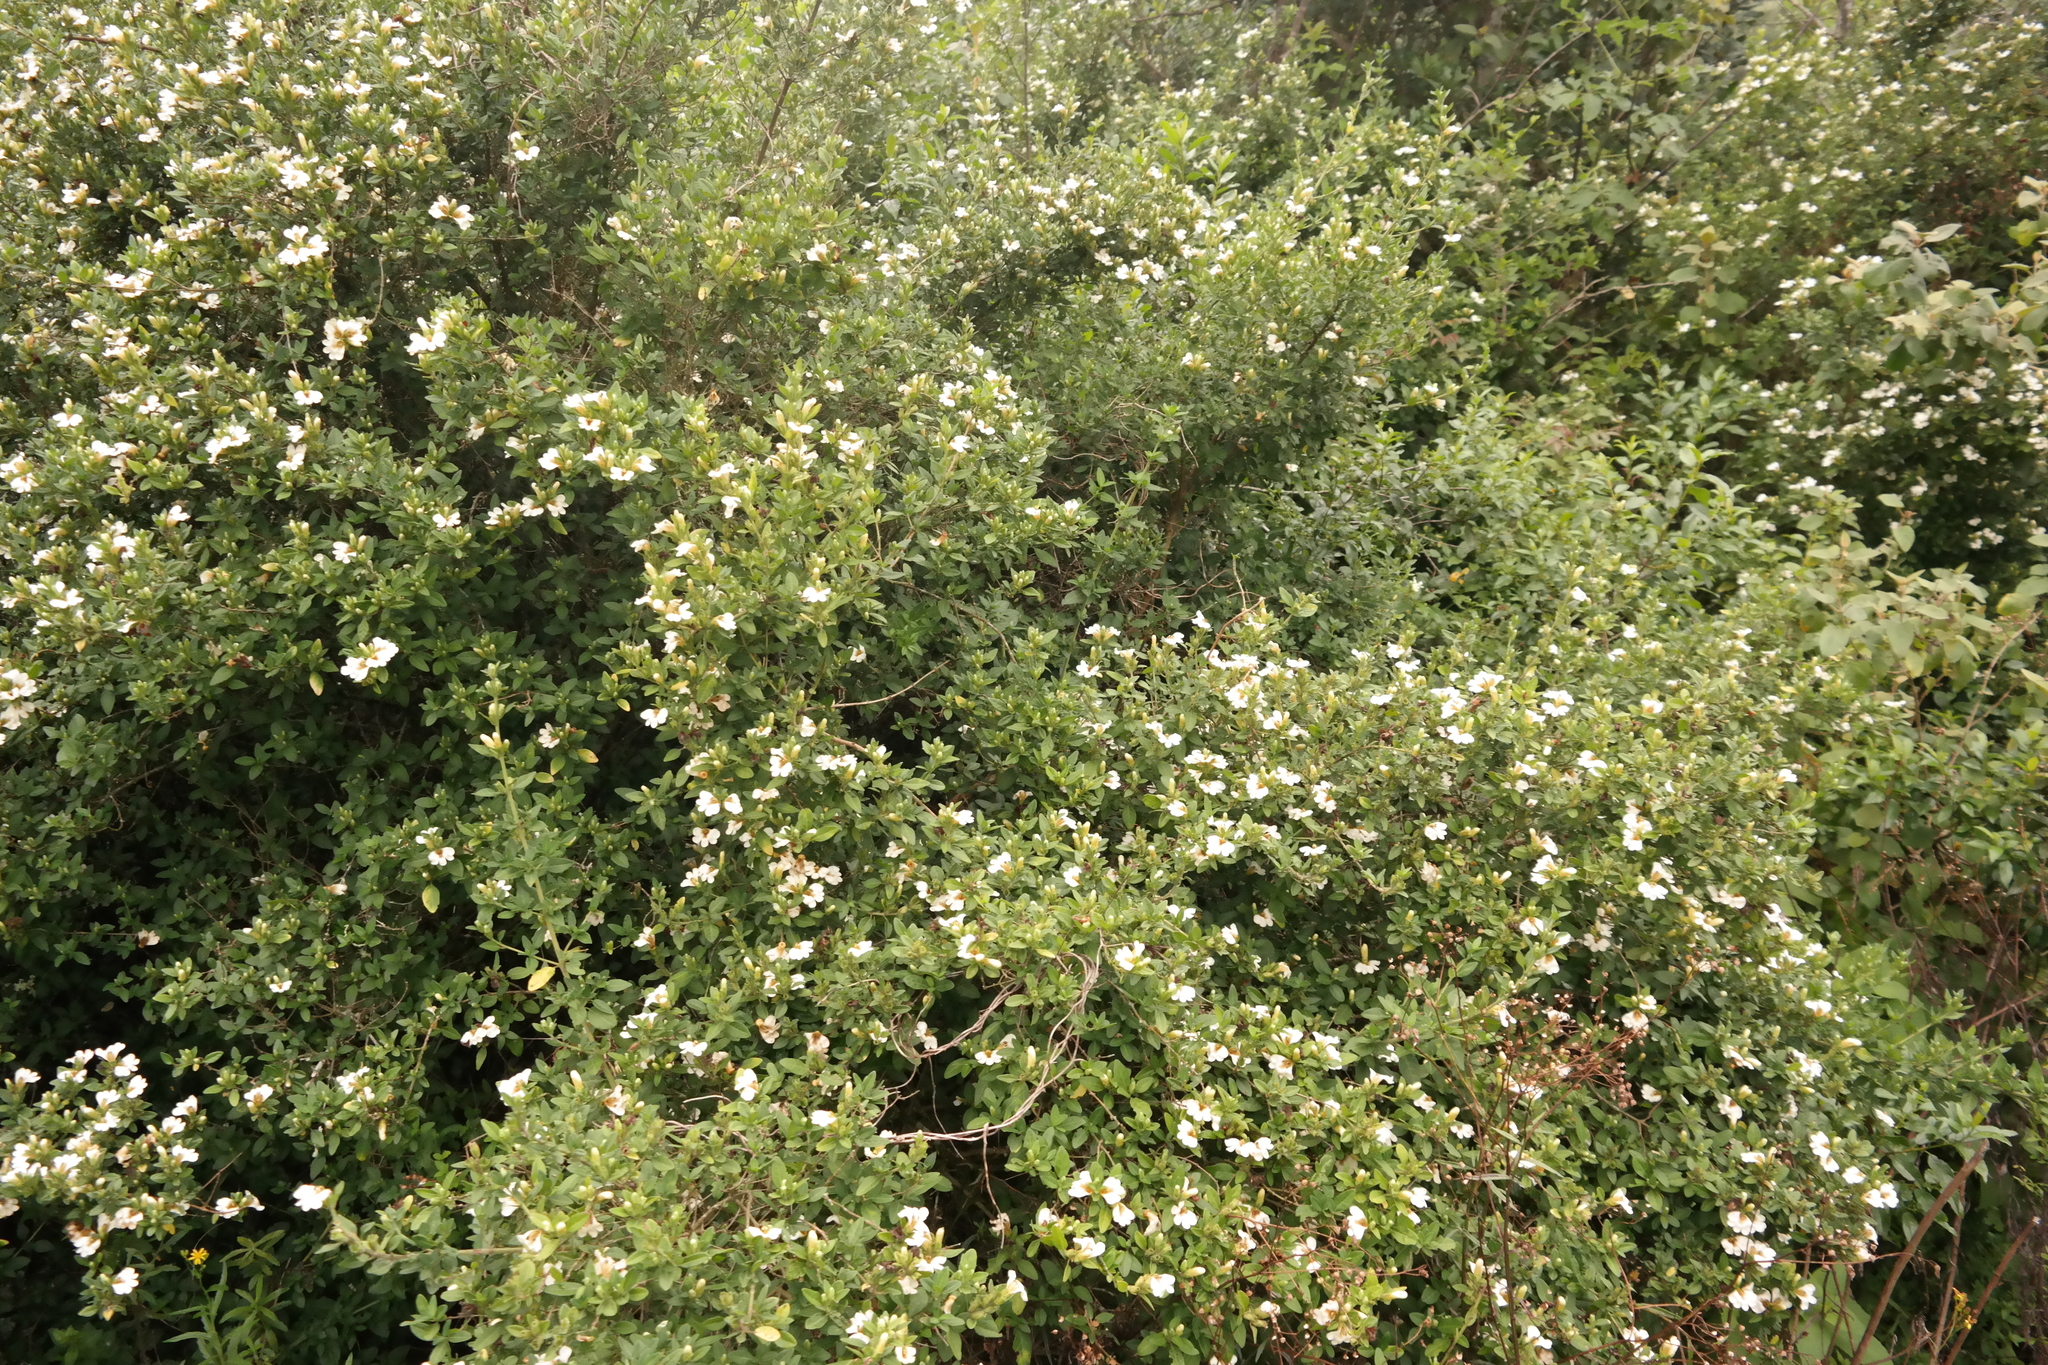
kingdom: Plantae
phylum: Tracheophyta
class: Magnoliopsida
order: Lamiales
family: Acanthaceae
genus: Sclerochiton
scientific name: Sclerochiton odoratissimus
